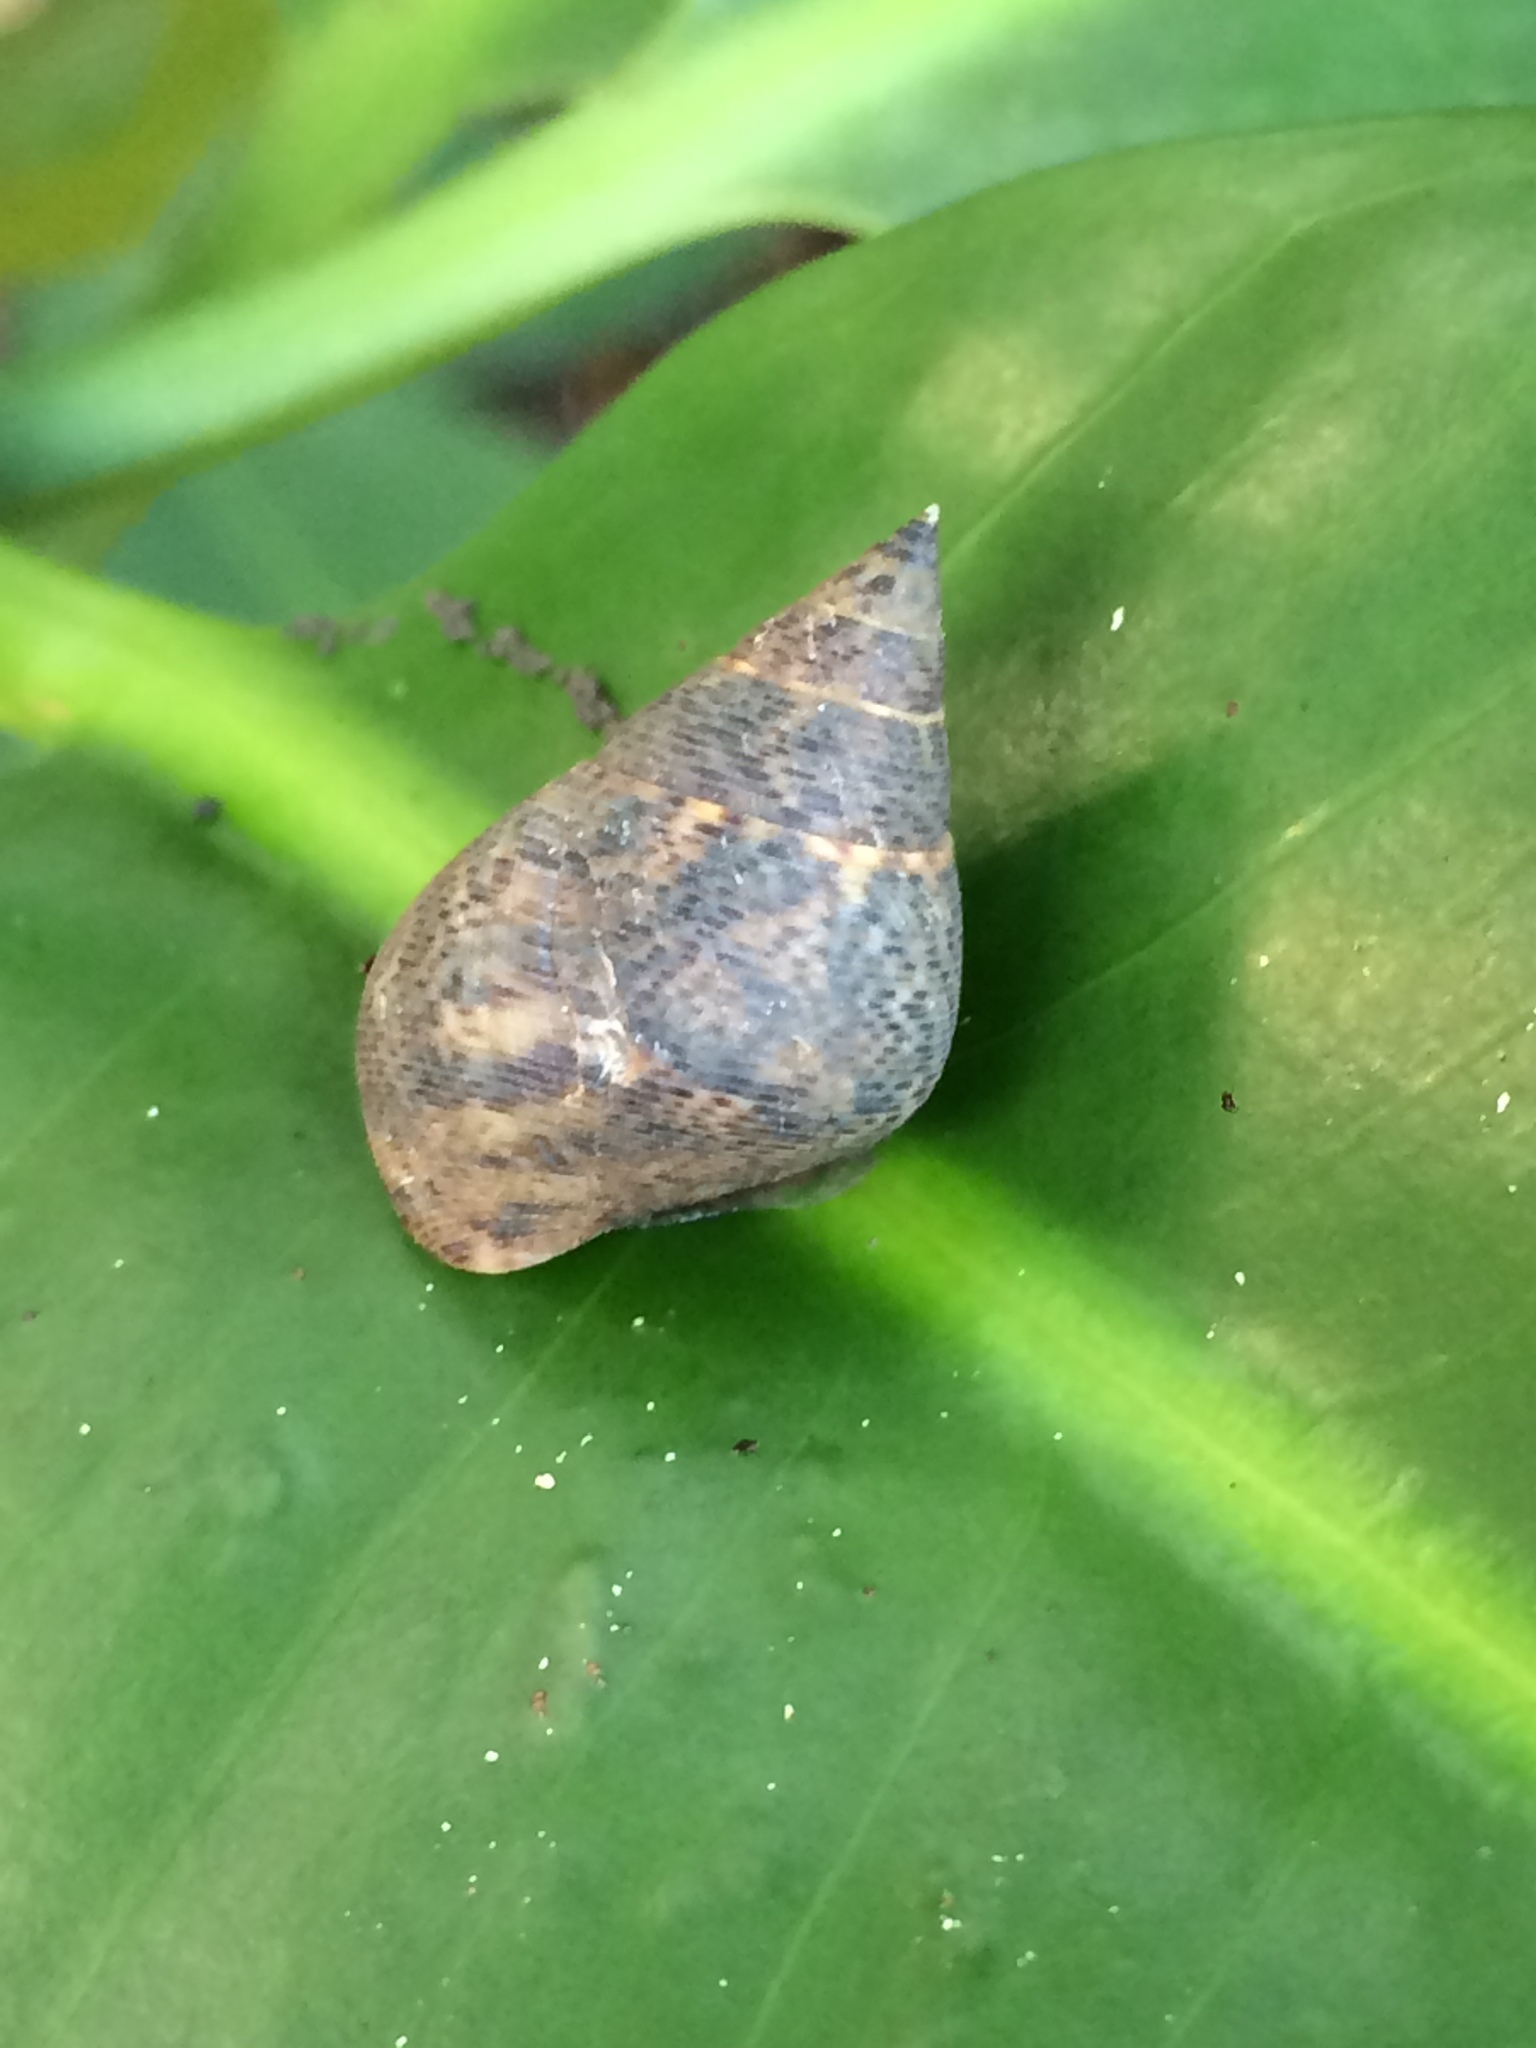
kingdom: Animalia
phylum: Mollusca
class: Gastropoda
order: Littorinimorpha
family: Littorinidae
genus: Littoraria
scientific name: Littoraria angulifera
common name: Mangrove periwinkle
